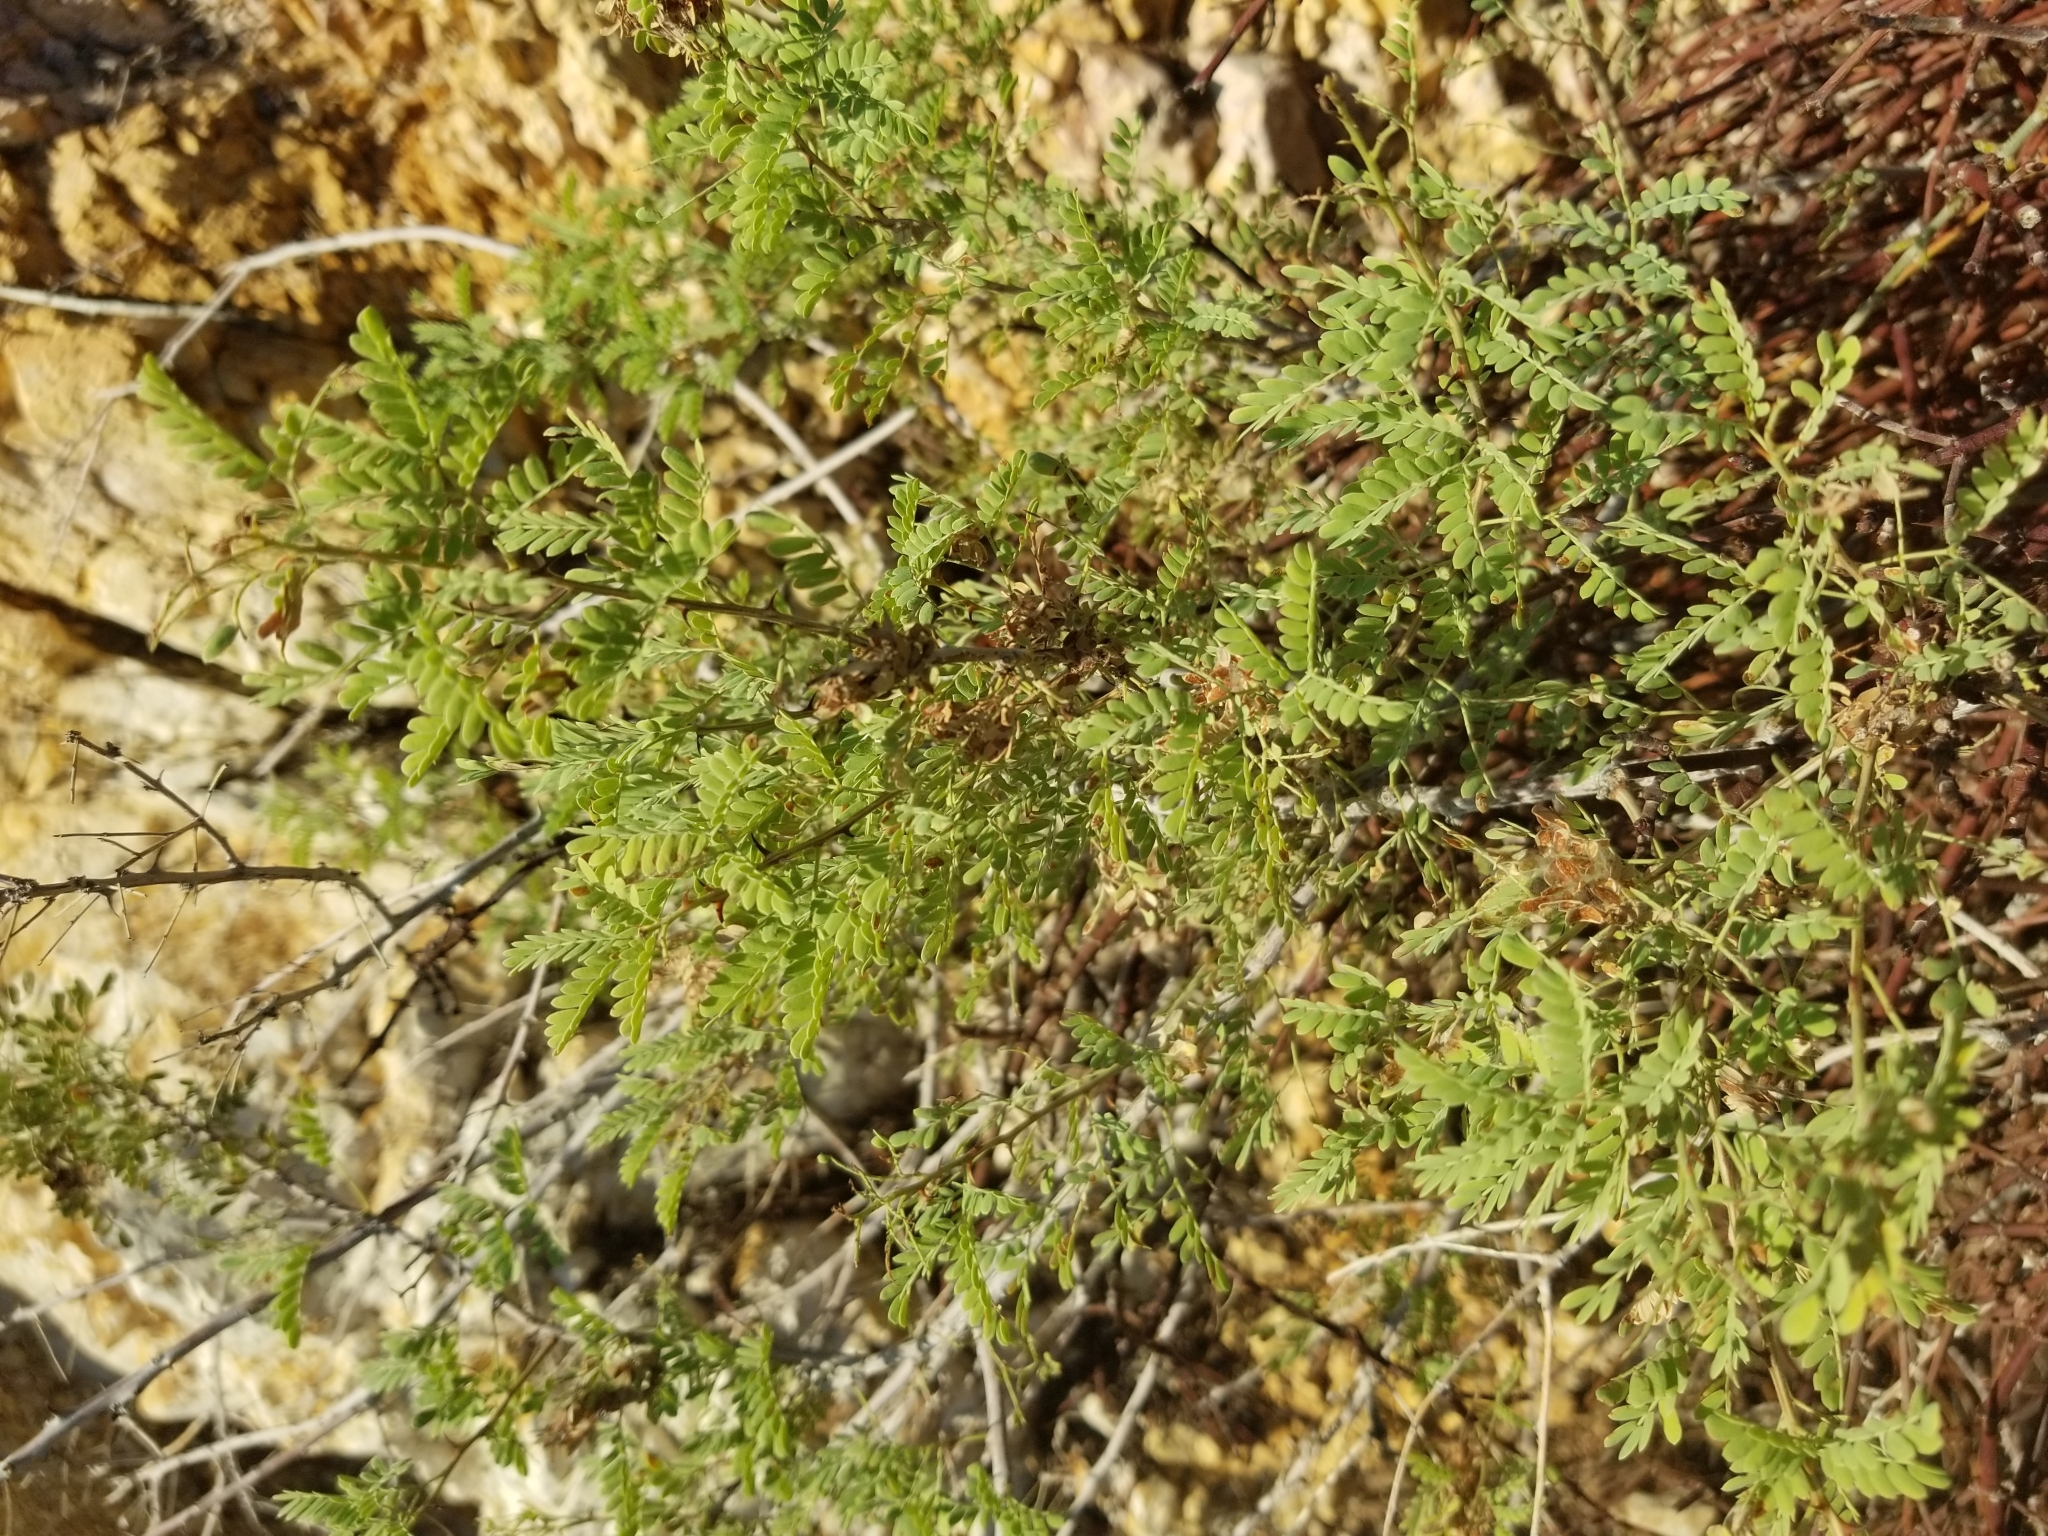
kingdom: Plantae
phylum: Tracheophyta
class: Magnoliopsida
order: Fabales
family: Fabaceae
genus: Senegalia
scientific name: Senegalia greggii
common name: Texas-mimosa
